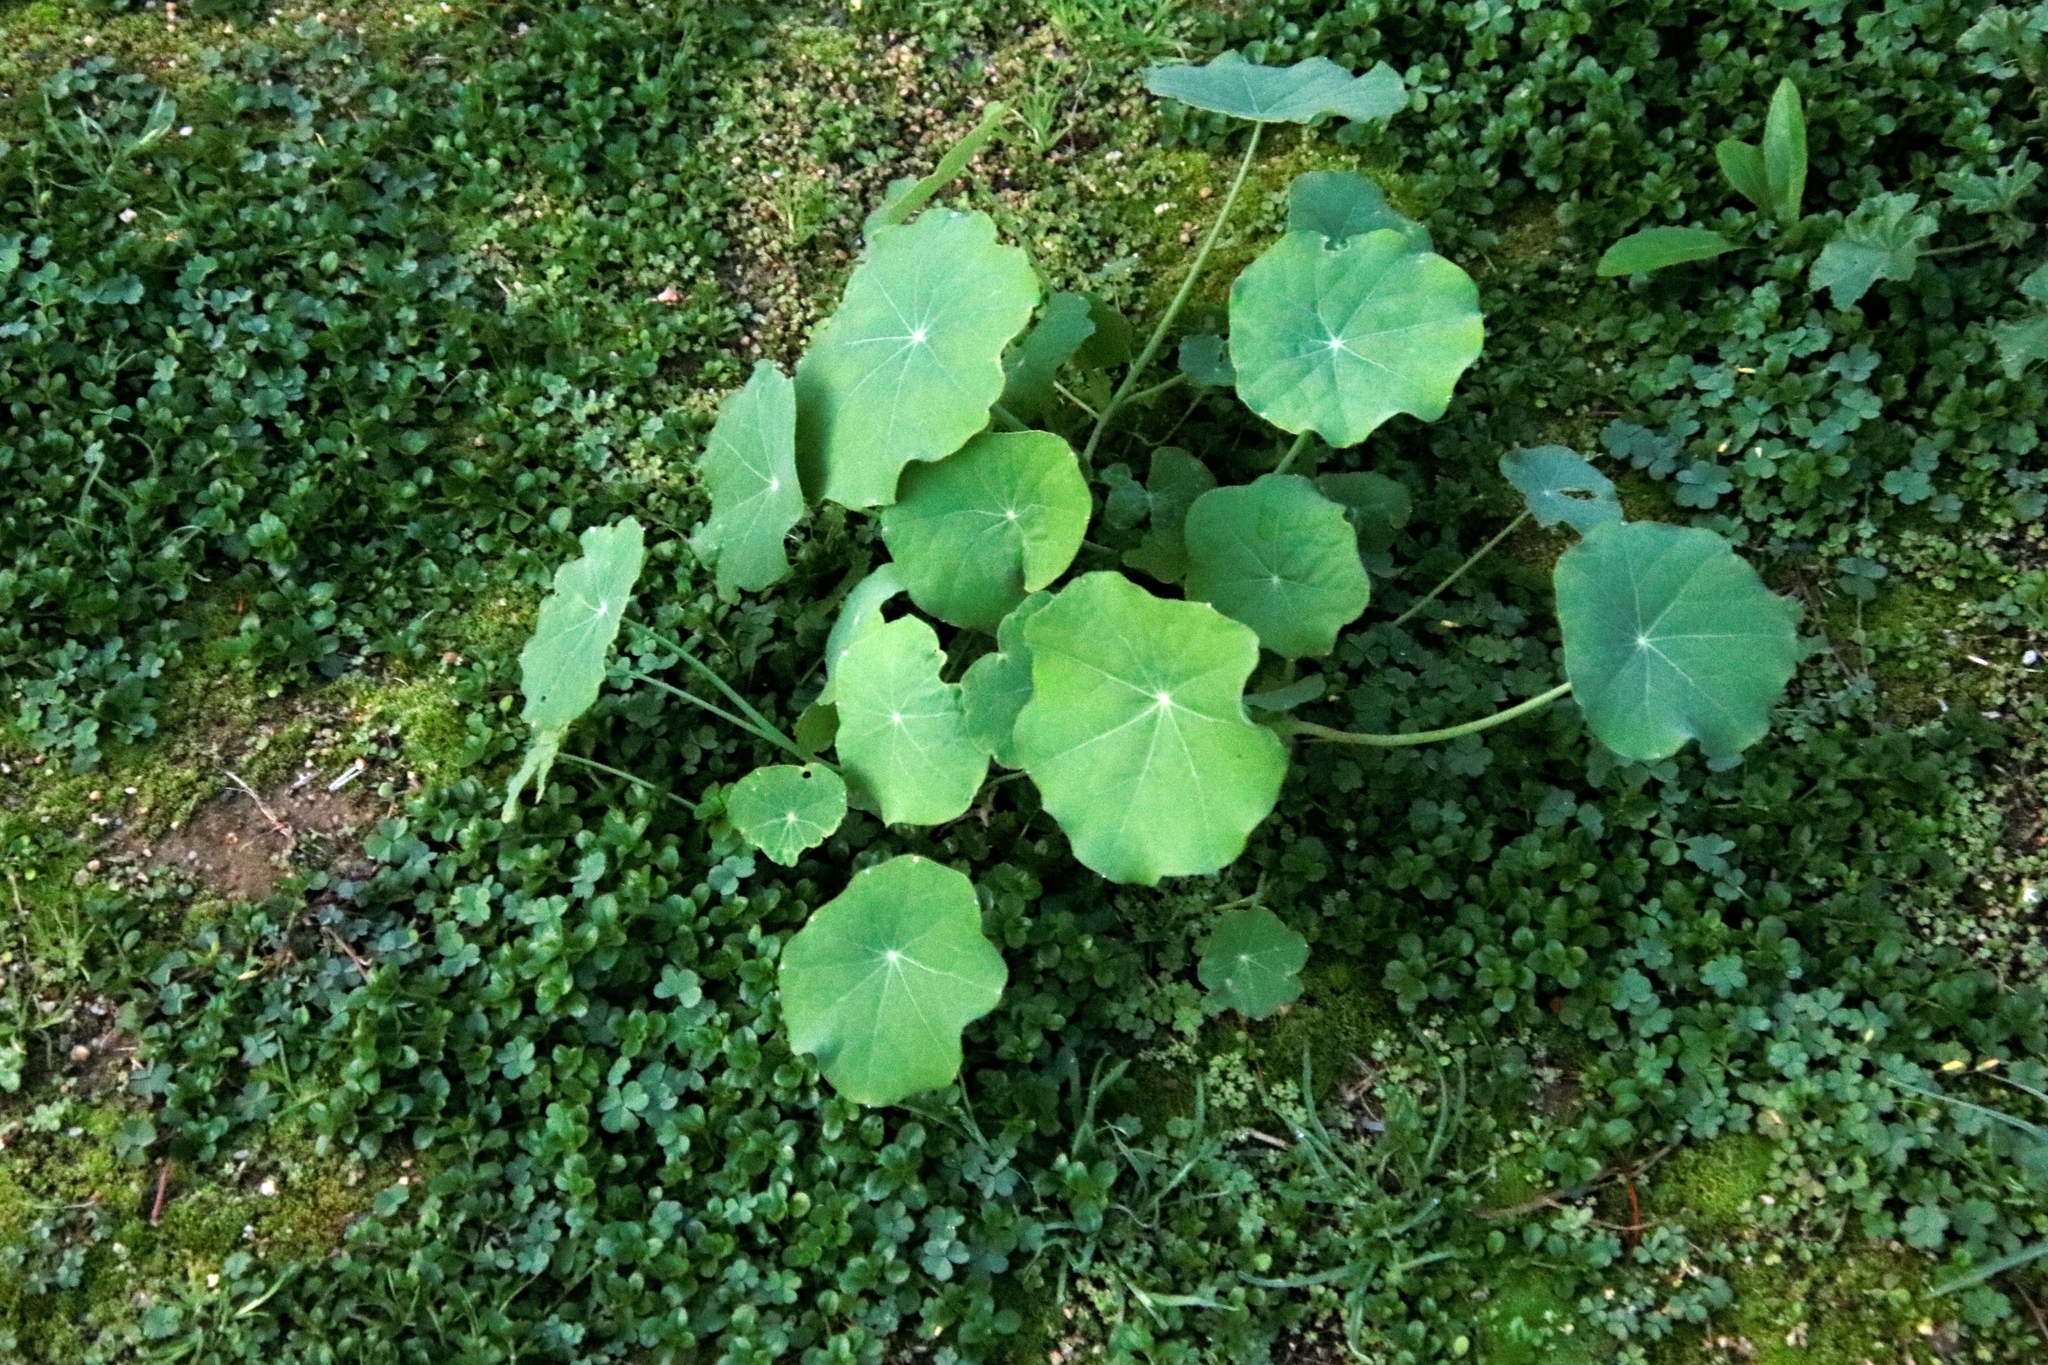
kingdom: Plantae
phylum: Tracheophyta
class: Magnoliopsida
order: Brassicales
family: Tropaeolaceae
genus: Tropaeolum
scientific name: Tropaeolum majus
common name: Nasturtium
